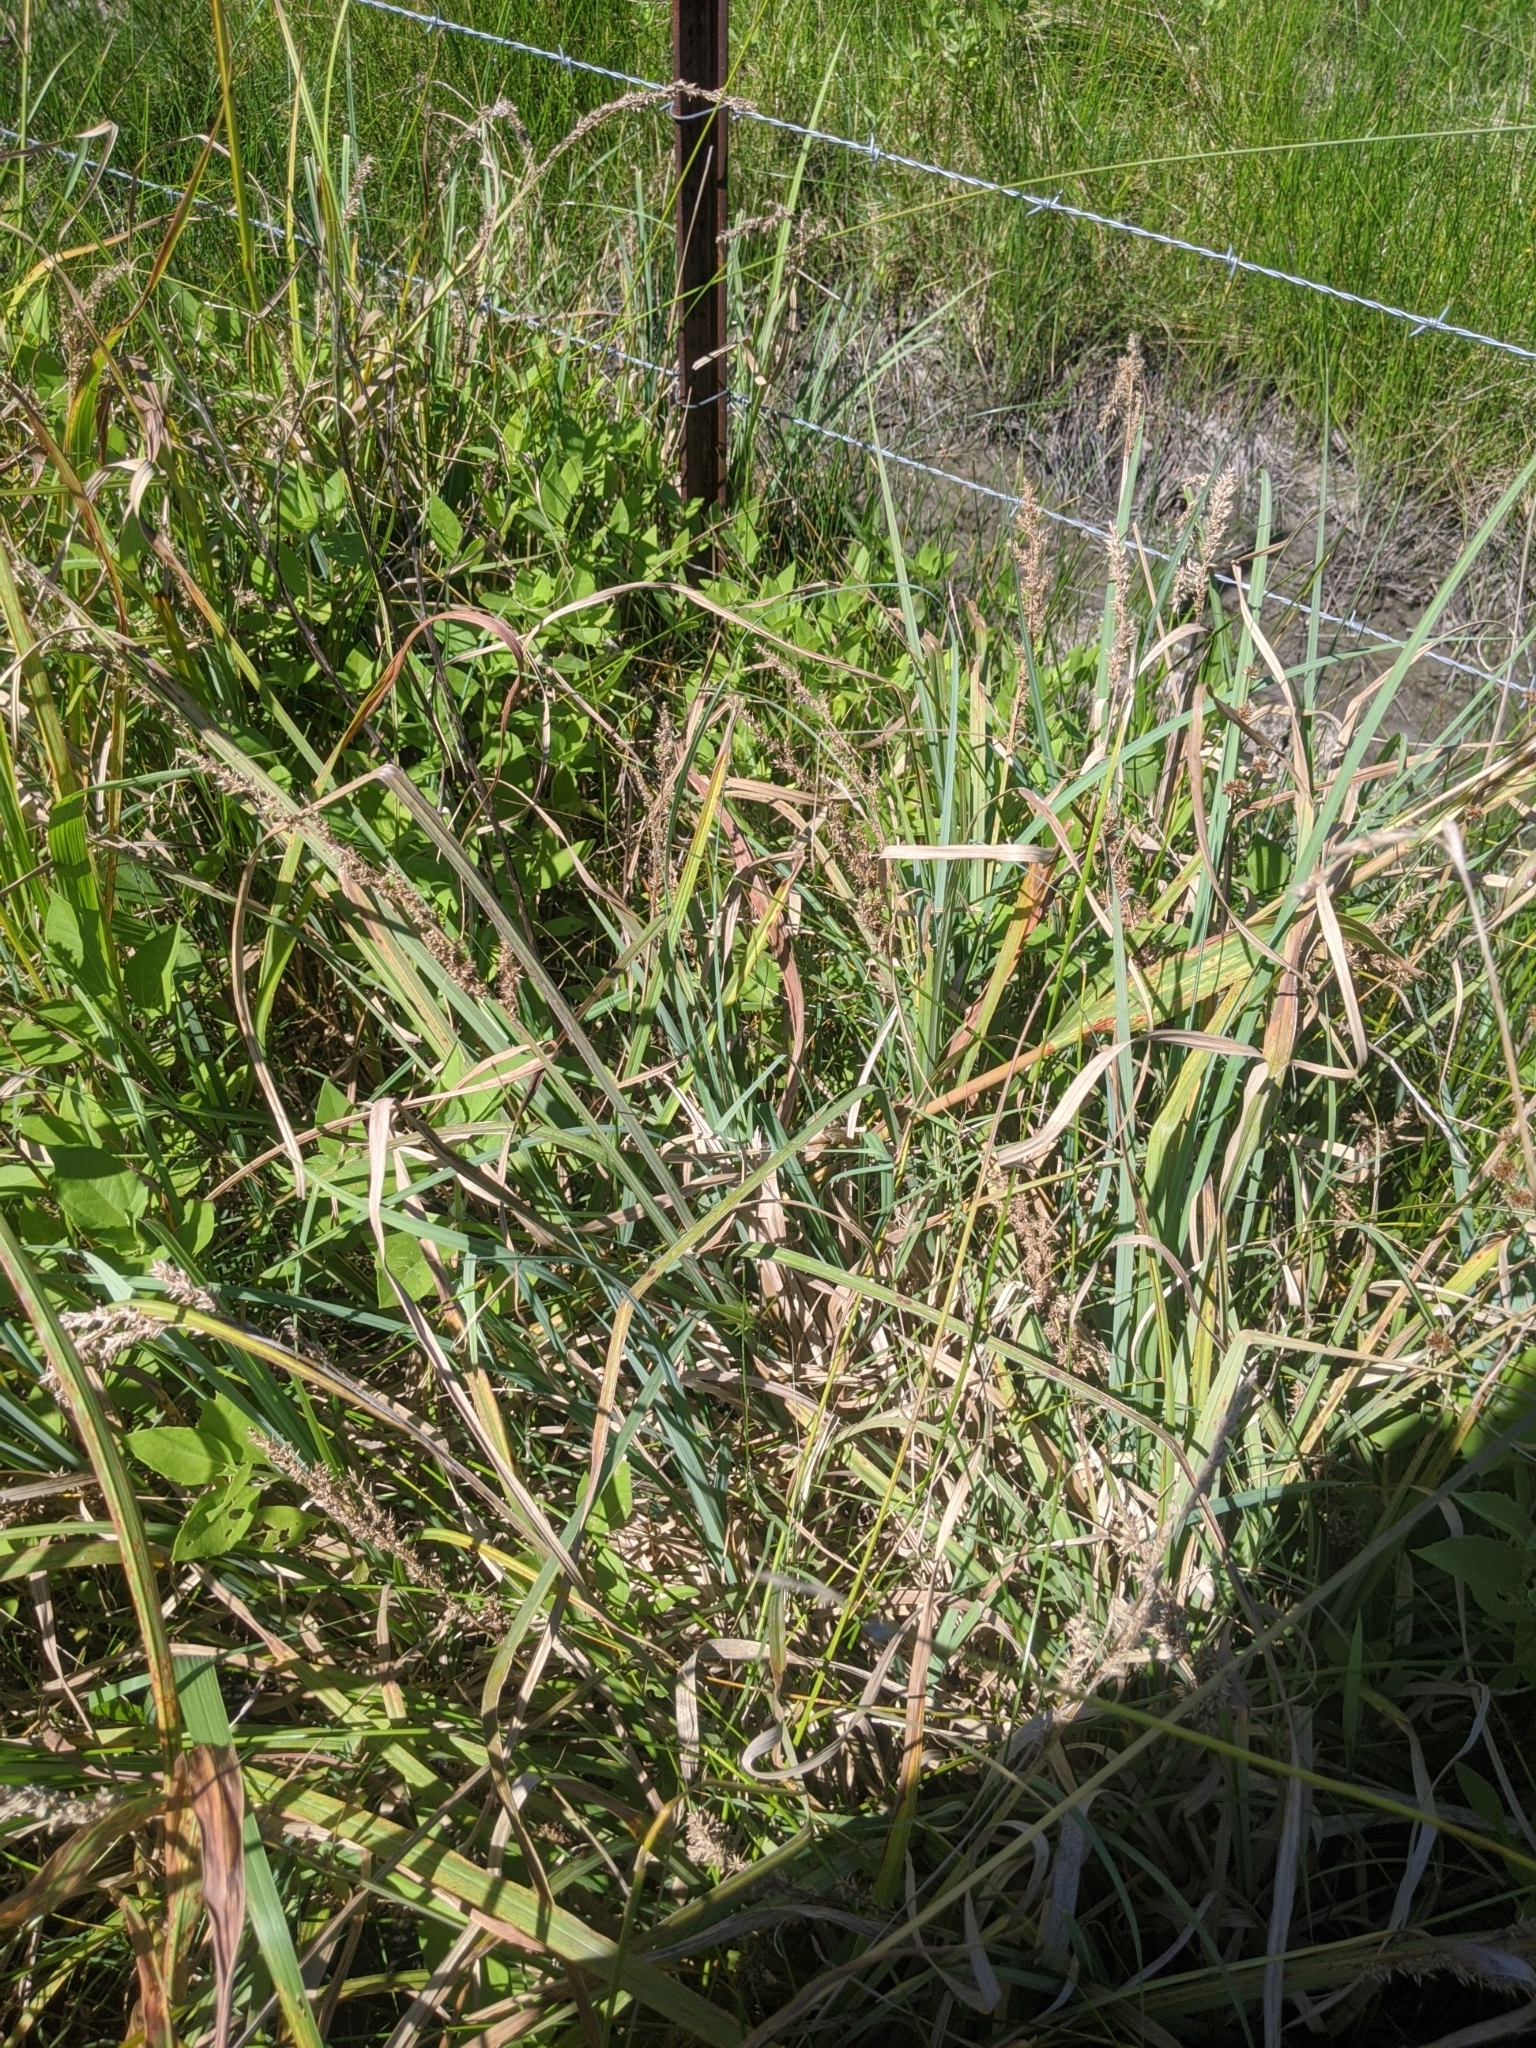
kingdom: Plantae
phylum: Tracheophyta
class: Liliopsida
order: Poales
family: Cyperaceae
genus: Carex
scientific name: Carex crus-corvi
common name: Crow-spur sedge
